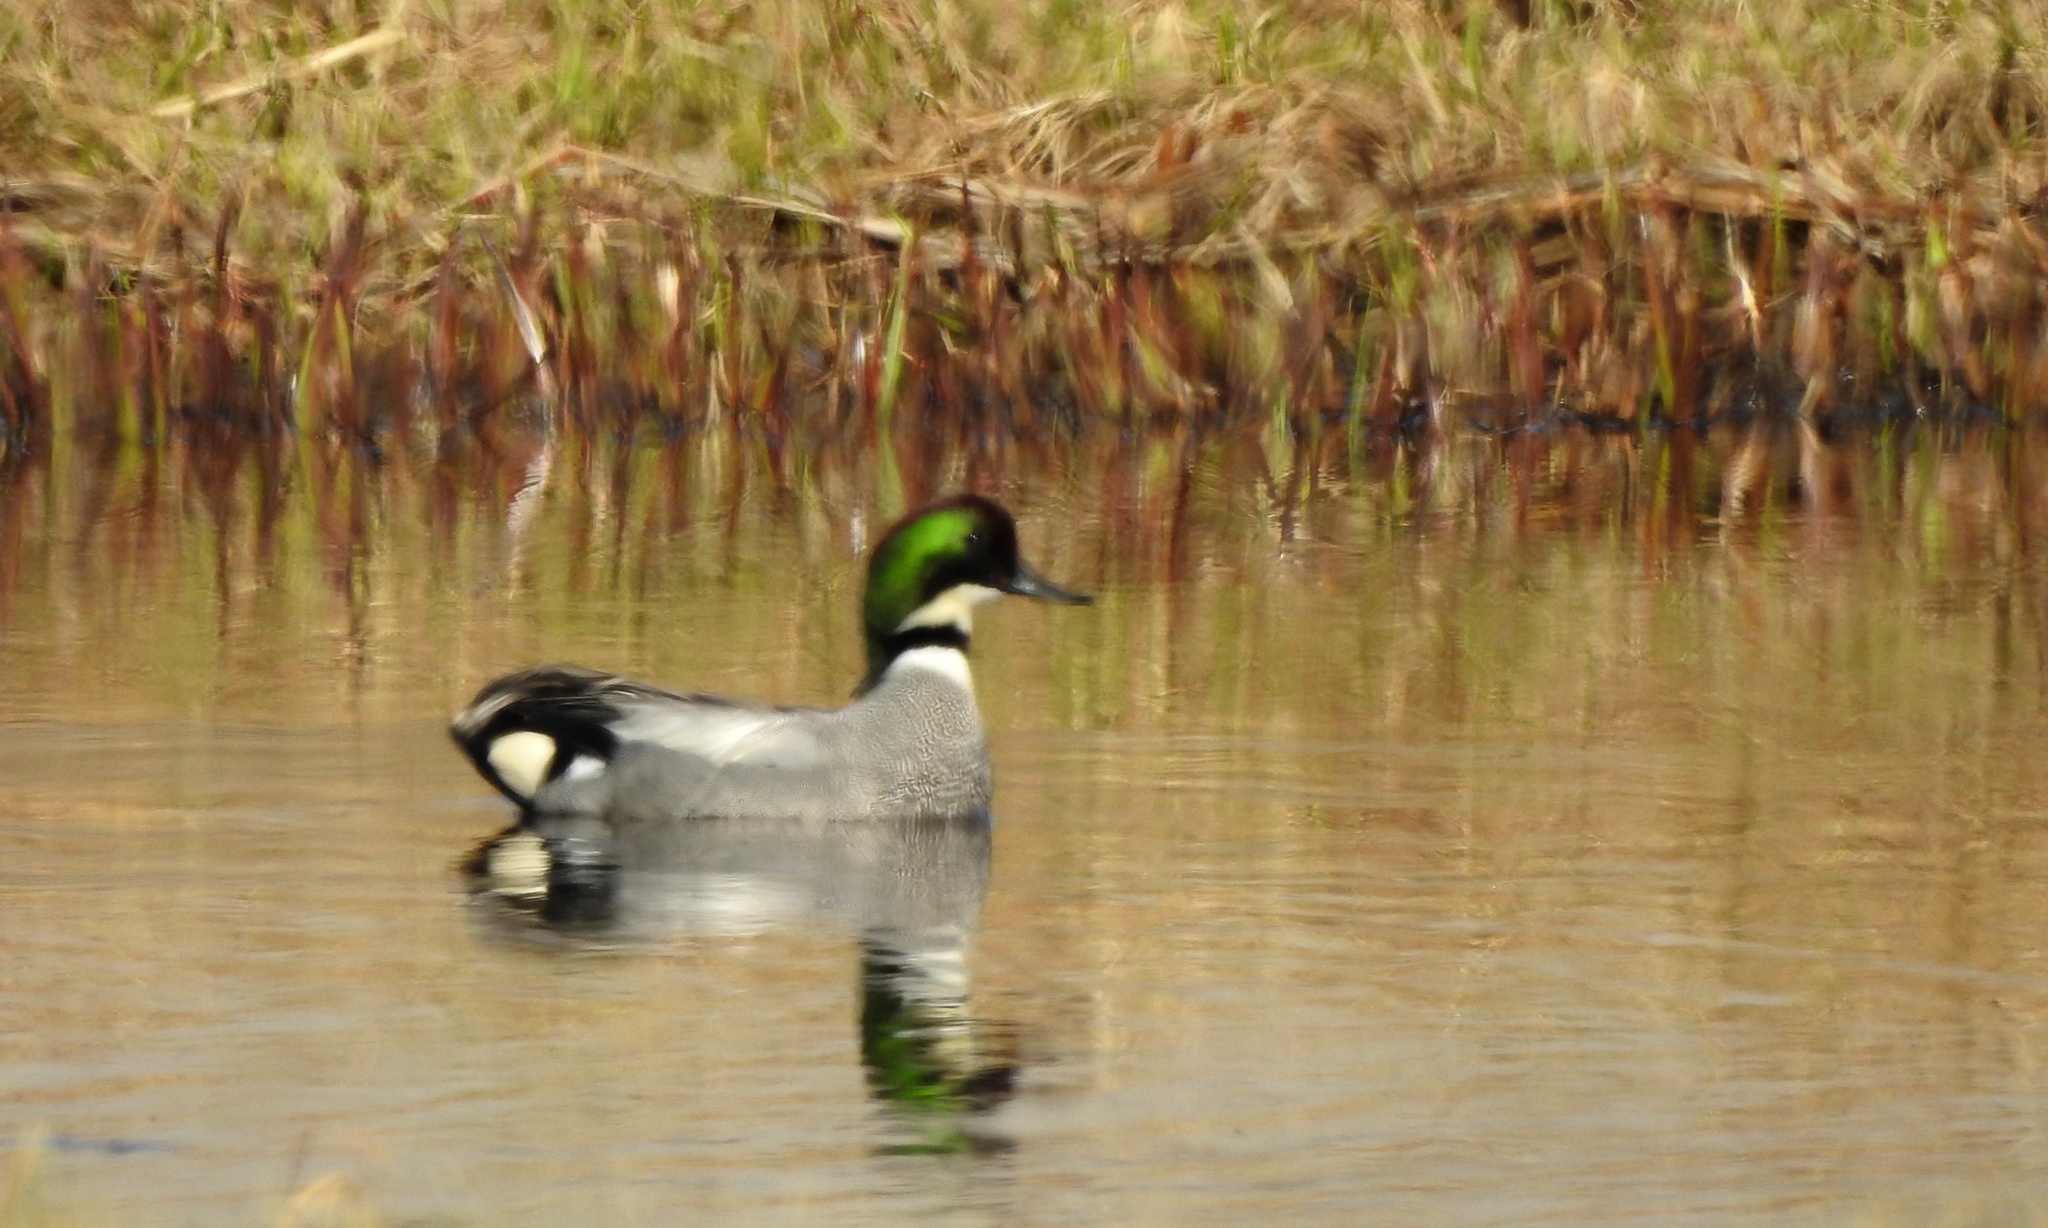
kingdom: Animalia
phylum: Chordata
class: Aves
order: Anseriformes
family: Anatidae
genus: Mareca
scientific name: Mareca falcata
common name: Falcated duck
